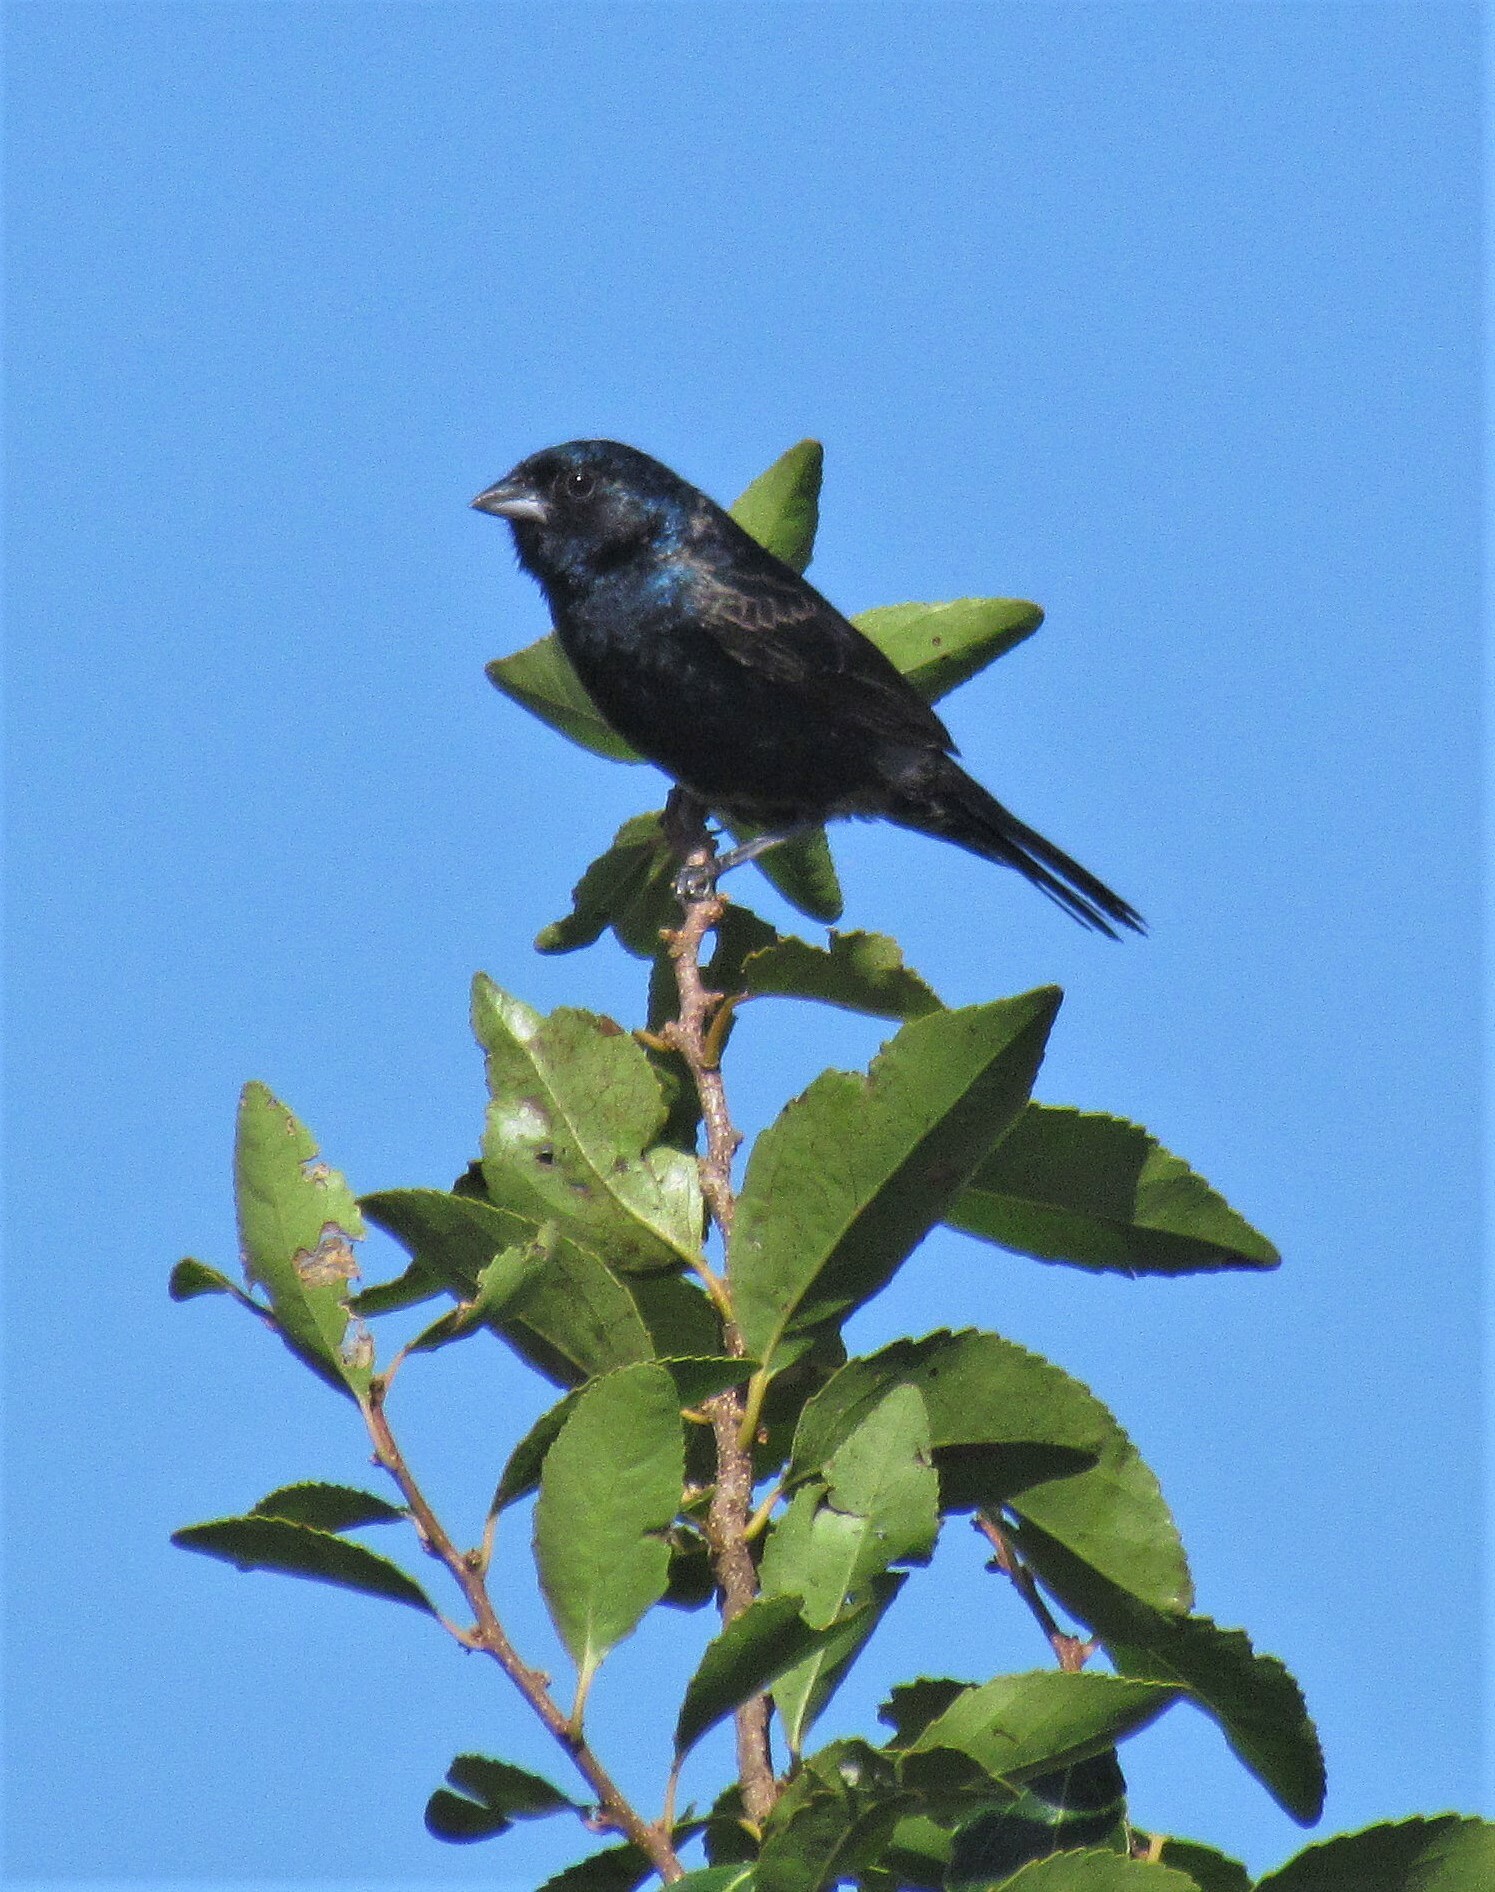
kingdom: Animalia
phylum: Chordata
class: Aves
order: Passeriformes
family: Thraupidae
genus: Volatinia
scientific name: Volatinia jacarina
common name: Blue-black grassquit
